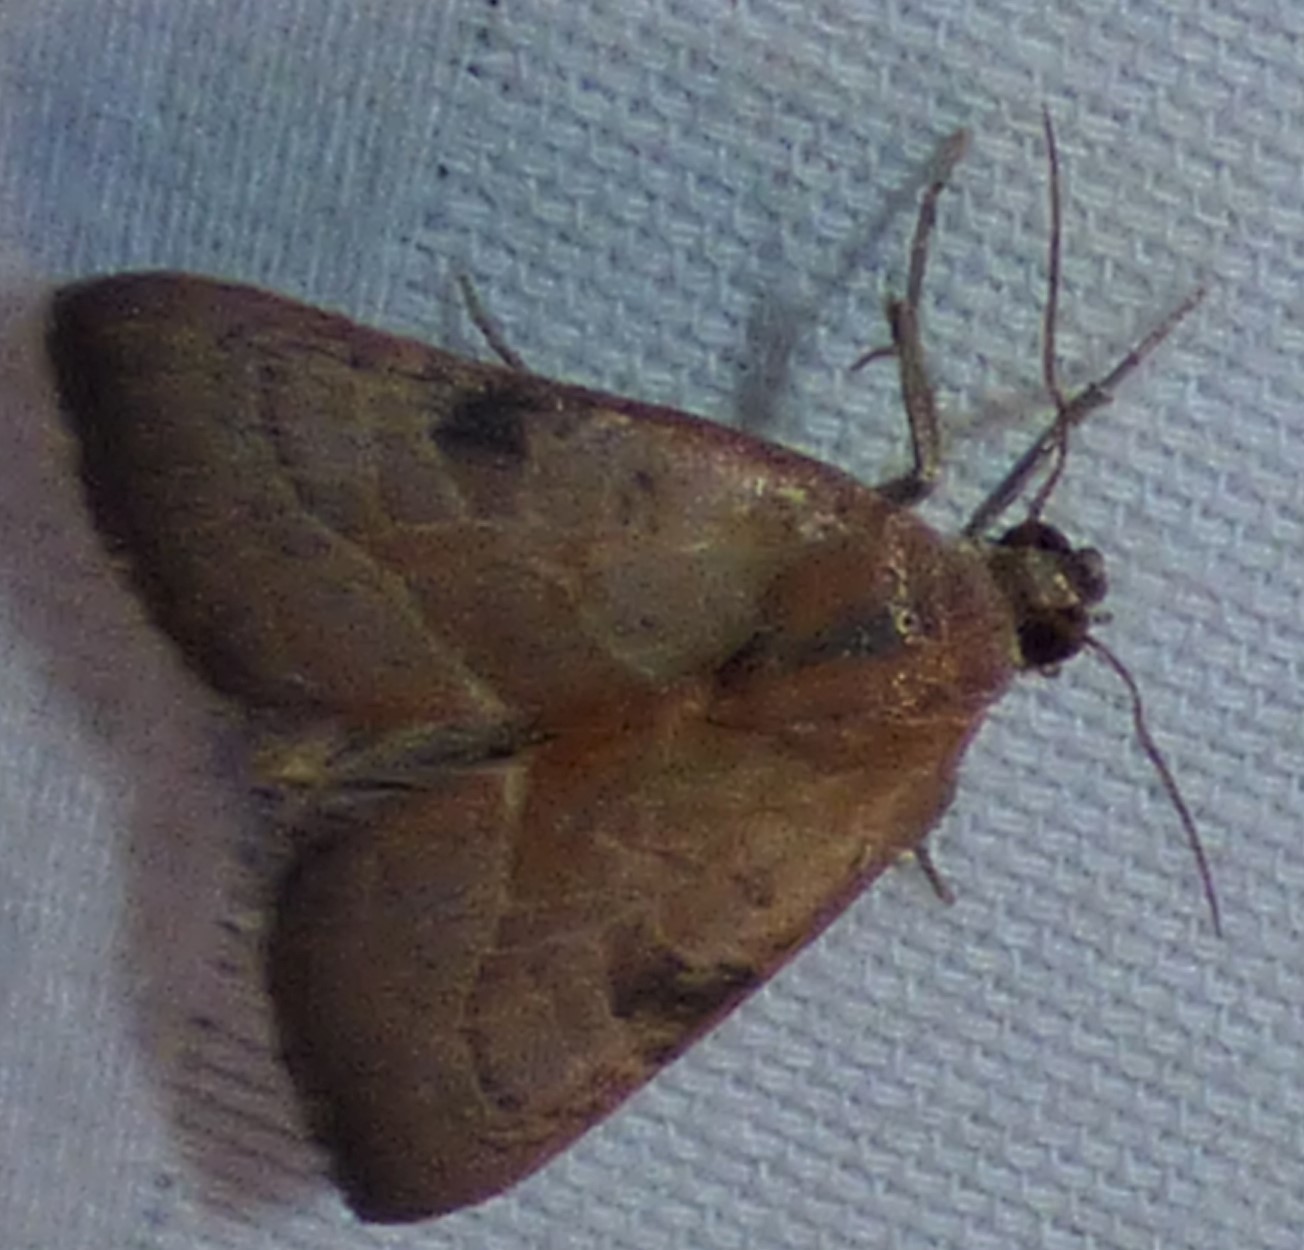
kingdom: Animalia
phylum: Arthropoda
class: Insecta
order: Lepidoptera
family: Noctuidae
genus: Galgula
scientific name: Galgula partita
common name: Wedgeling
